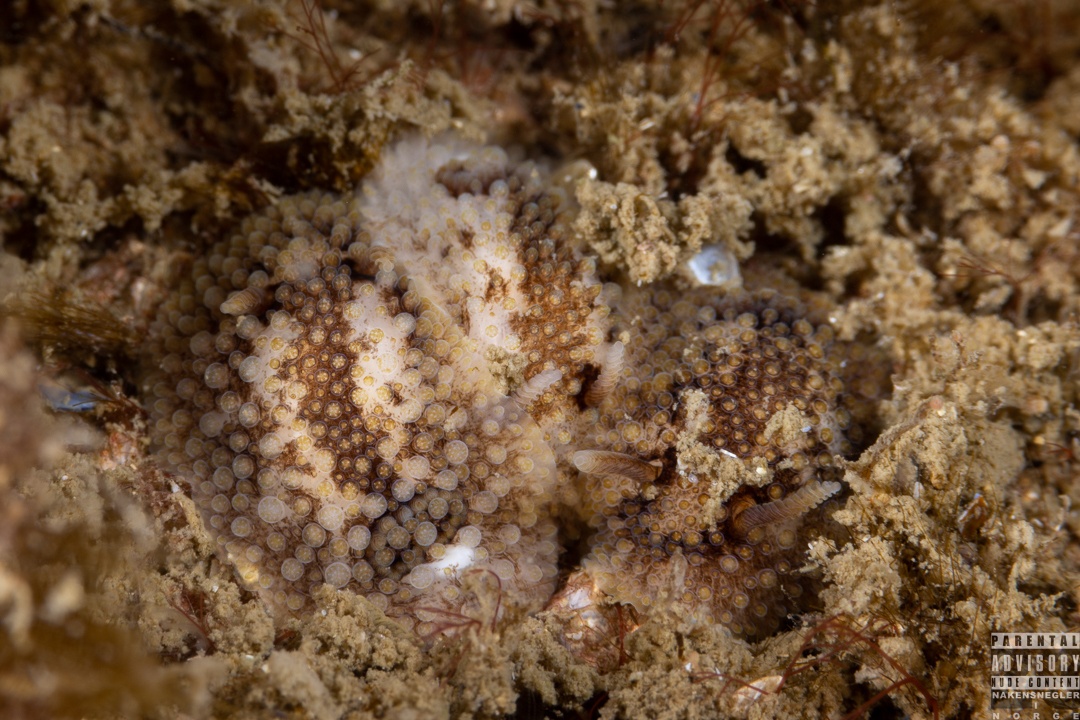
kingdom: Animalia
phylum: Mollusca
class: Gastropoda
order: Nudibranchia
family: Onchidorididae
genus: Onchidoris
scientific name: Onchidoris bilamellata
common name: Barnacle-eating onchidoris
